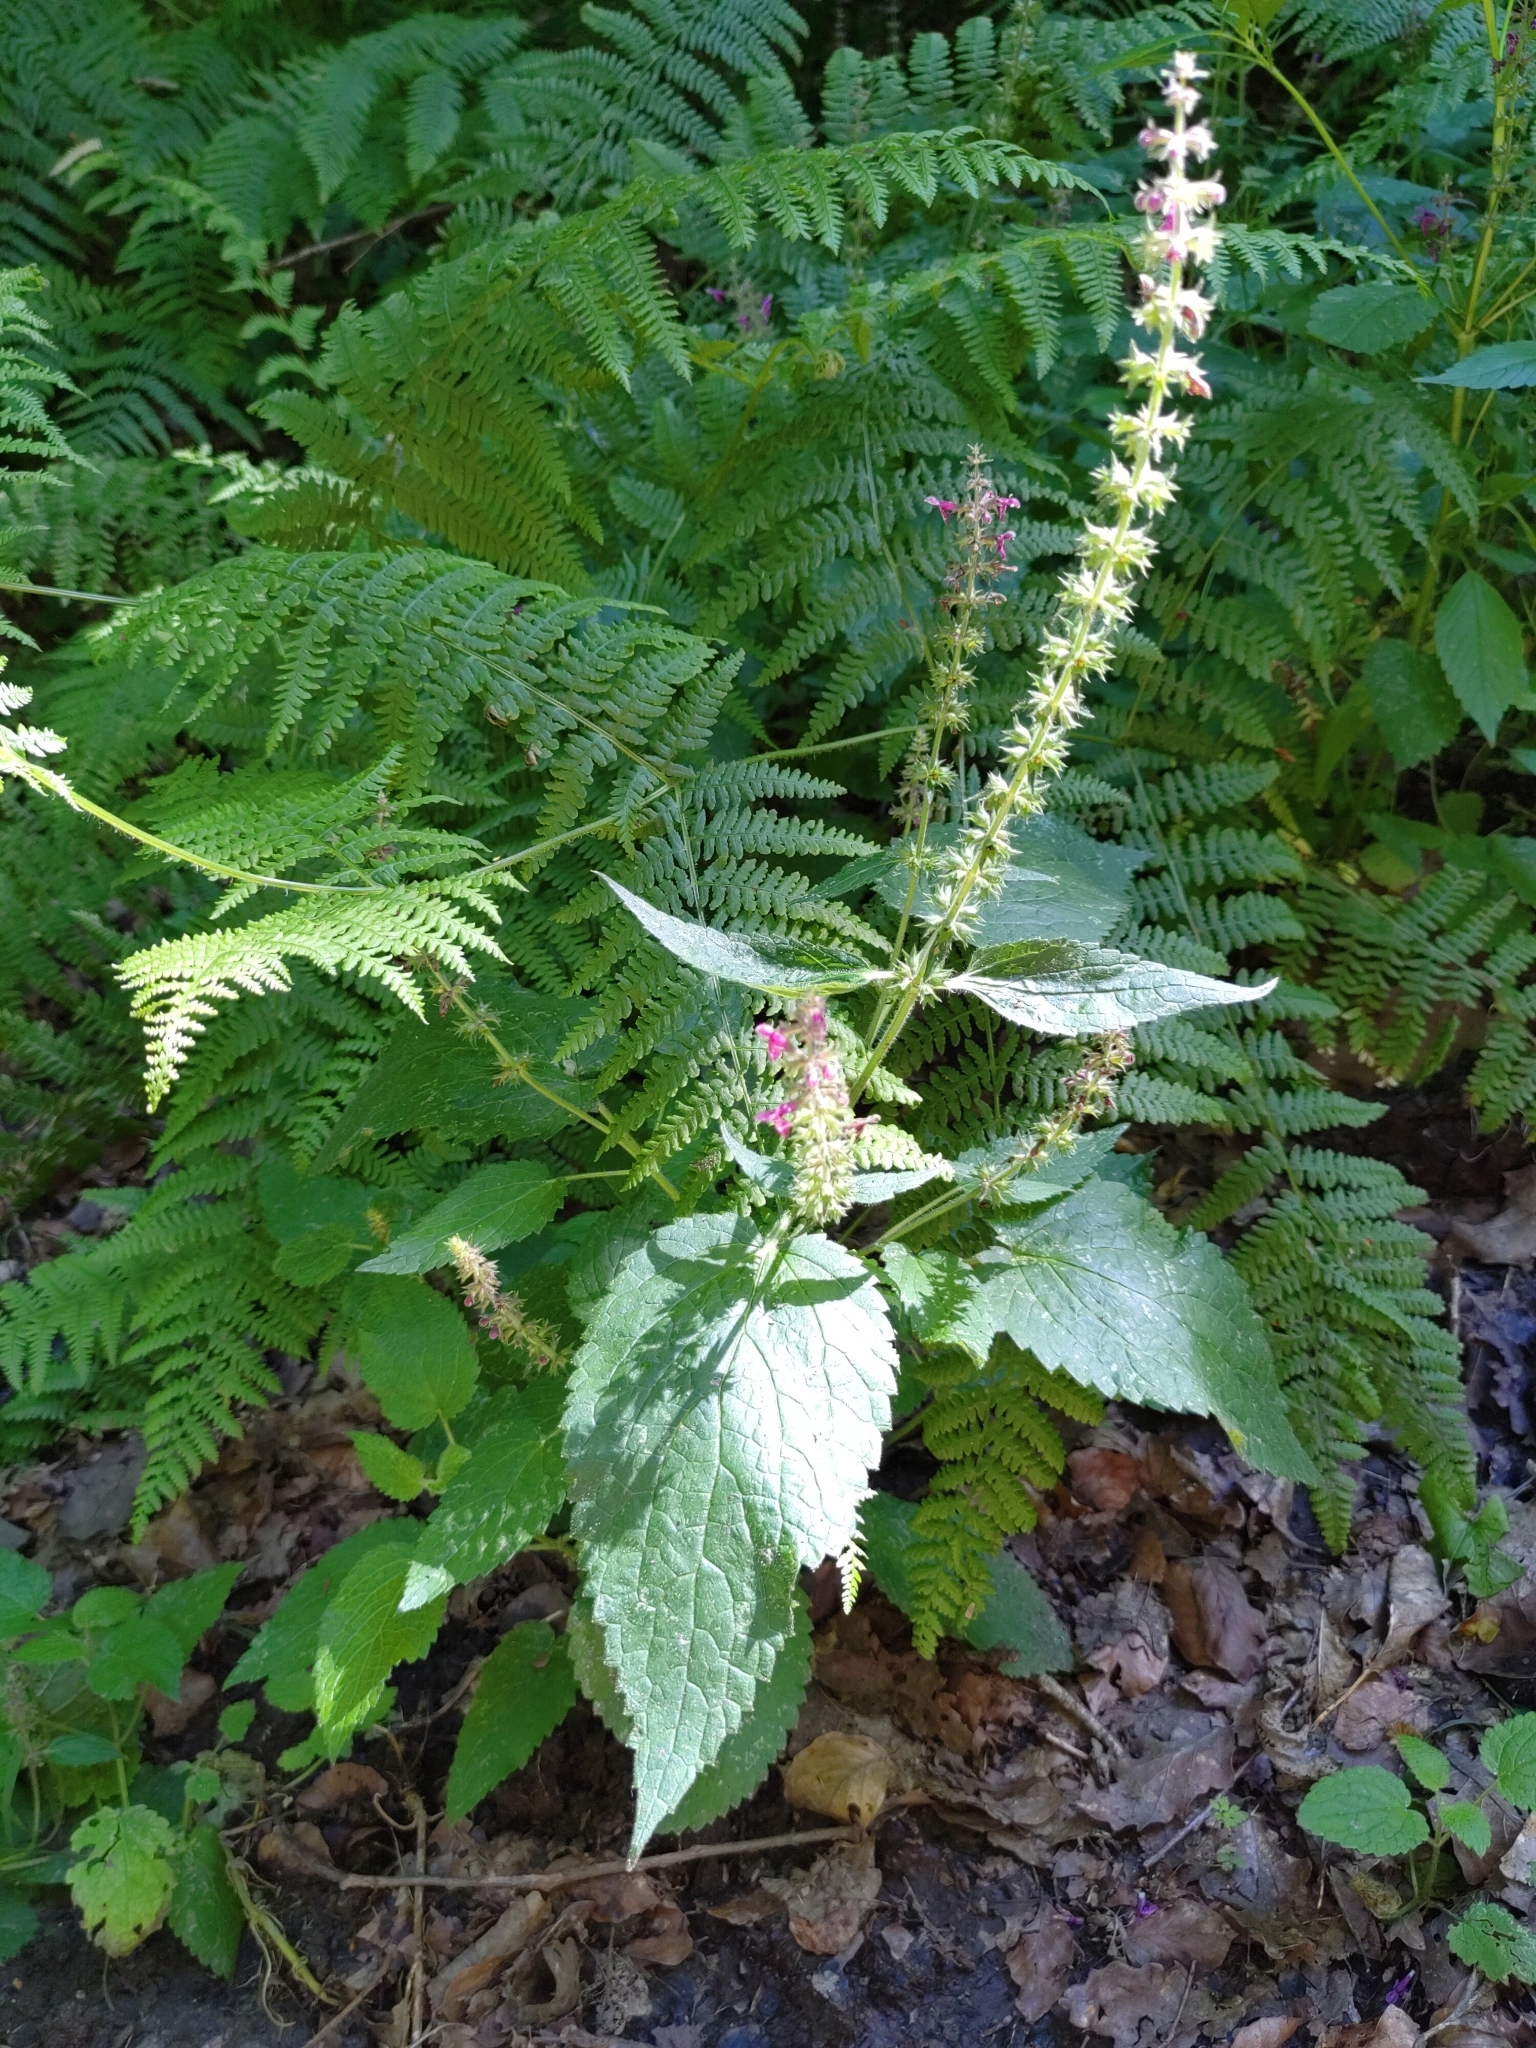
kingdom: Plantae
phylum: Tracheophyta
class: Magnoliopsida
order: Lamiales
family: Lamiaceae
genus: Stachys
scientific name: Stachys sylvatica
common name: Hedge woundwort
